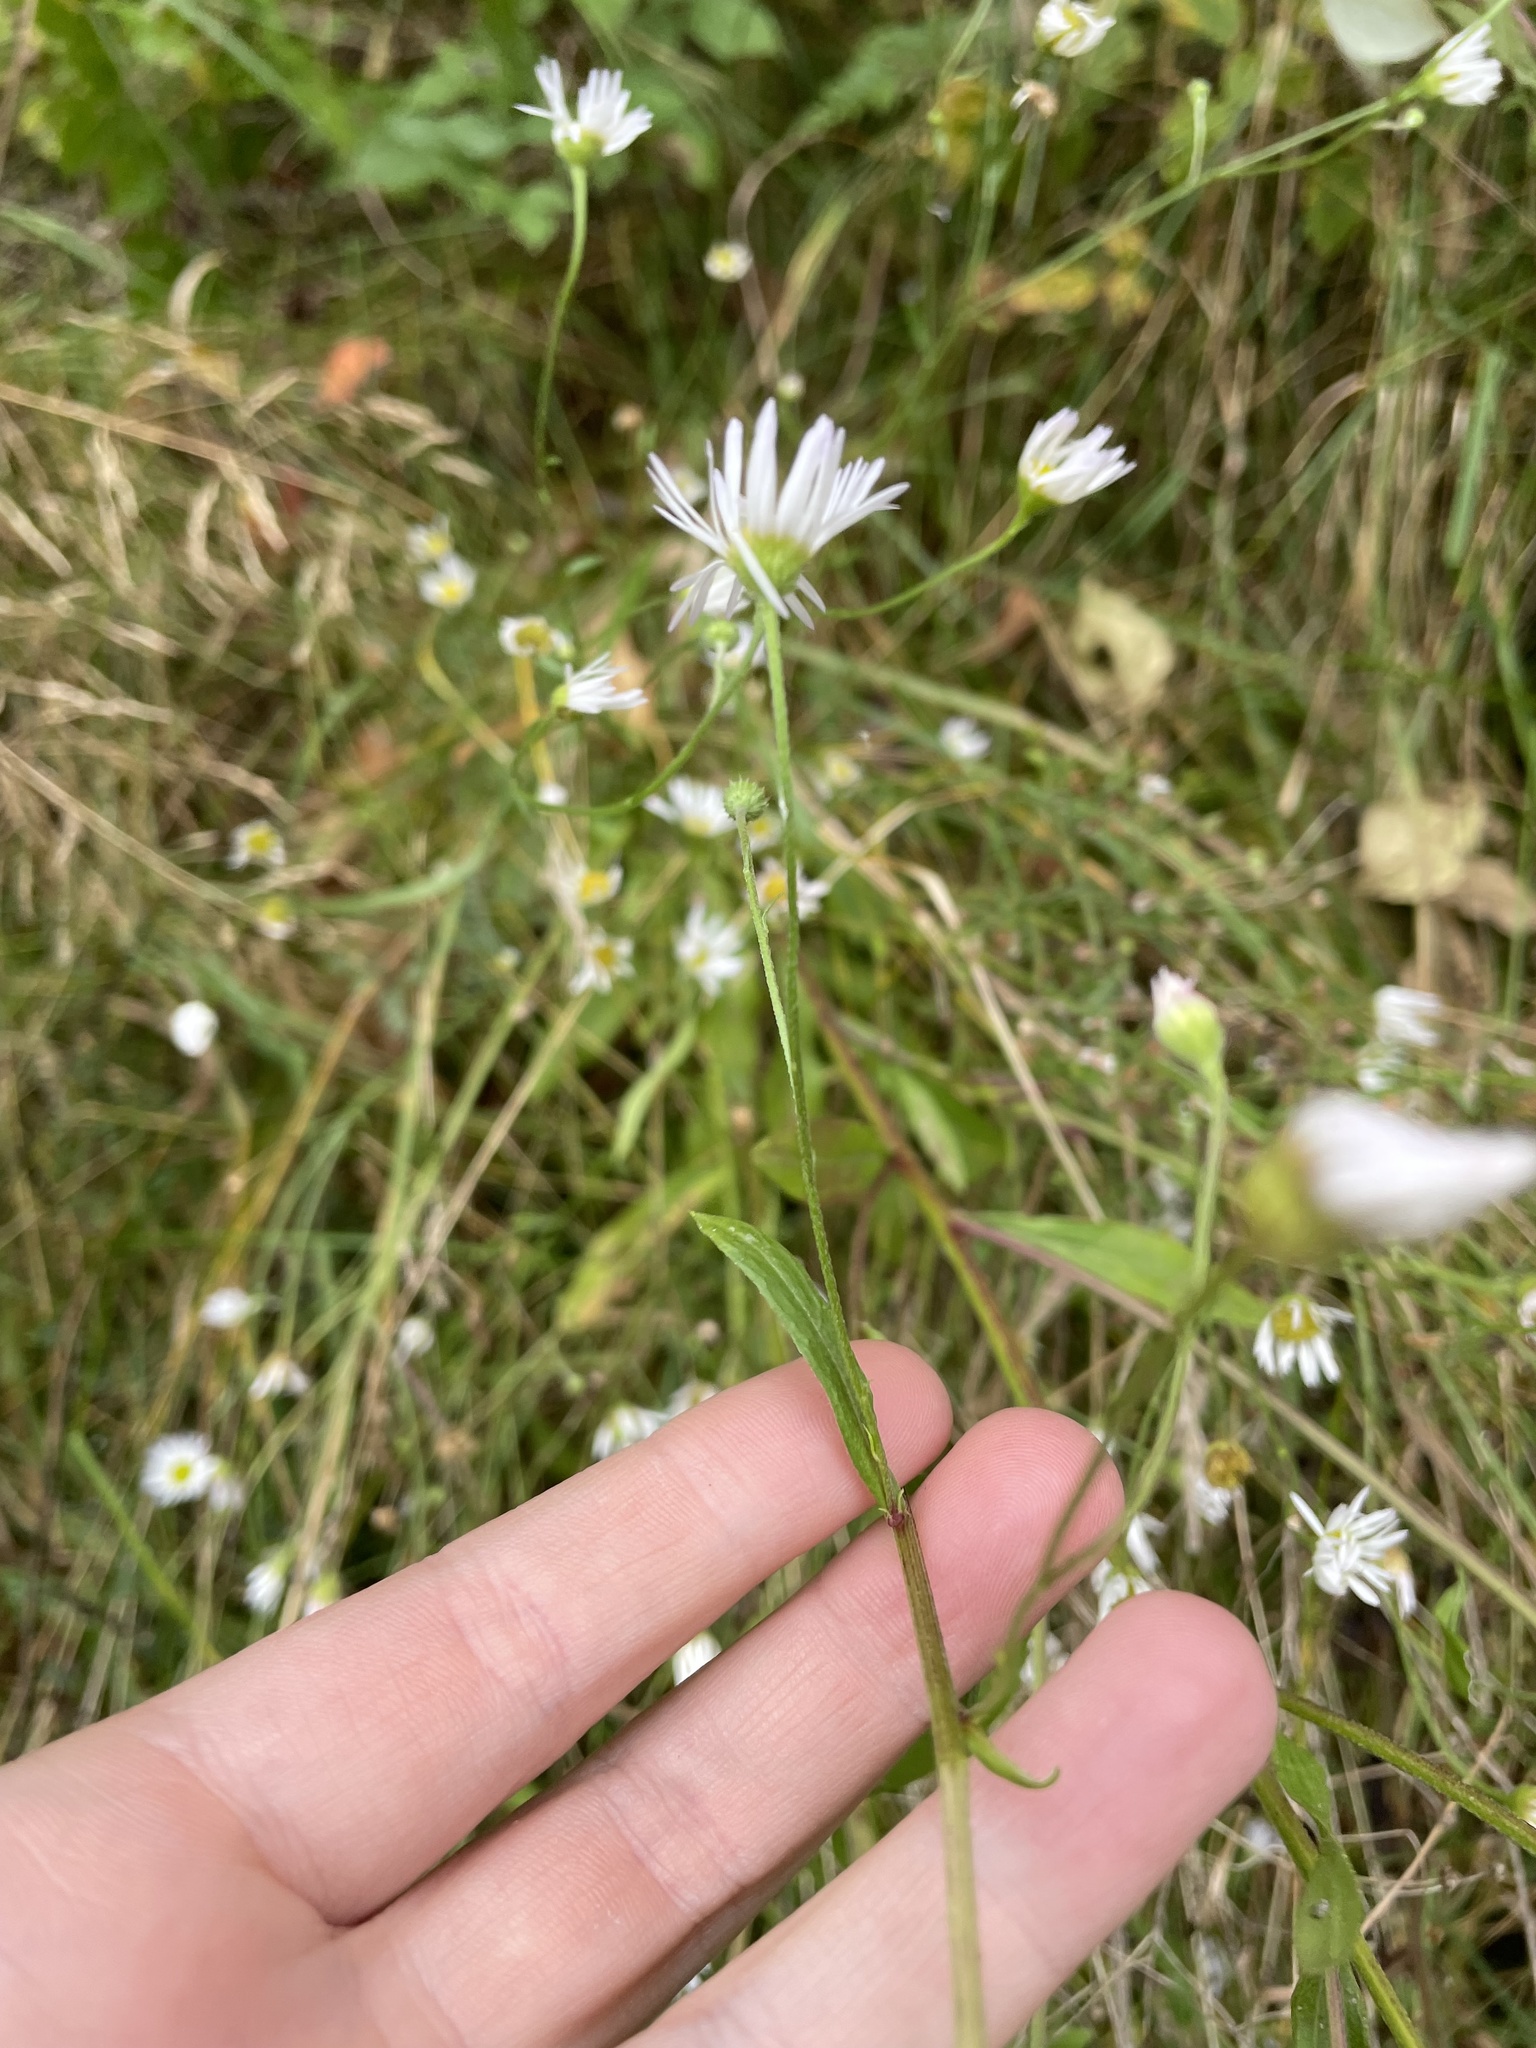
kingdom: Plantae
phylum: Tracheophyta
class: Magnoliopsida
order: Asterales
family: Asteraceae
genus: Erigeron
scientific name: Erigeron strigosus
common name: Common eastern fleabane
